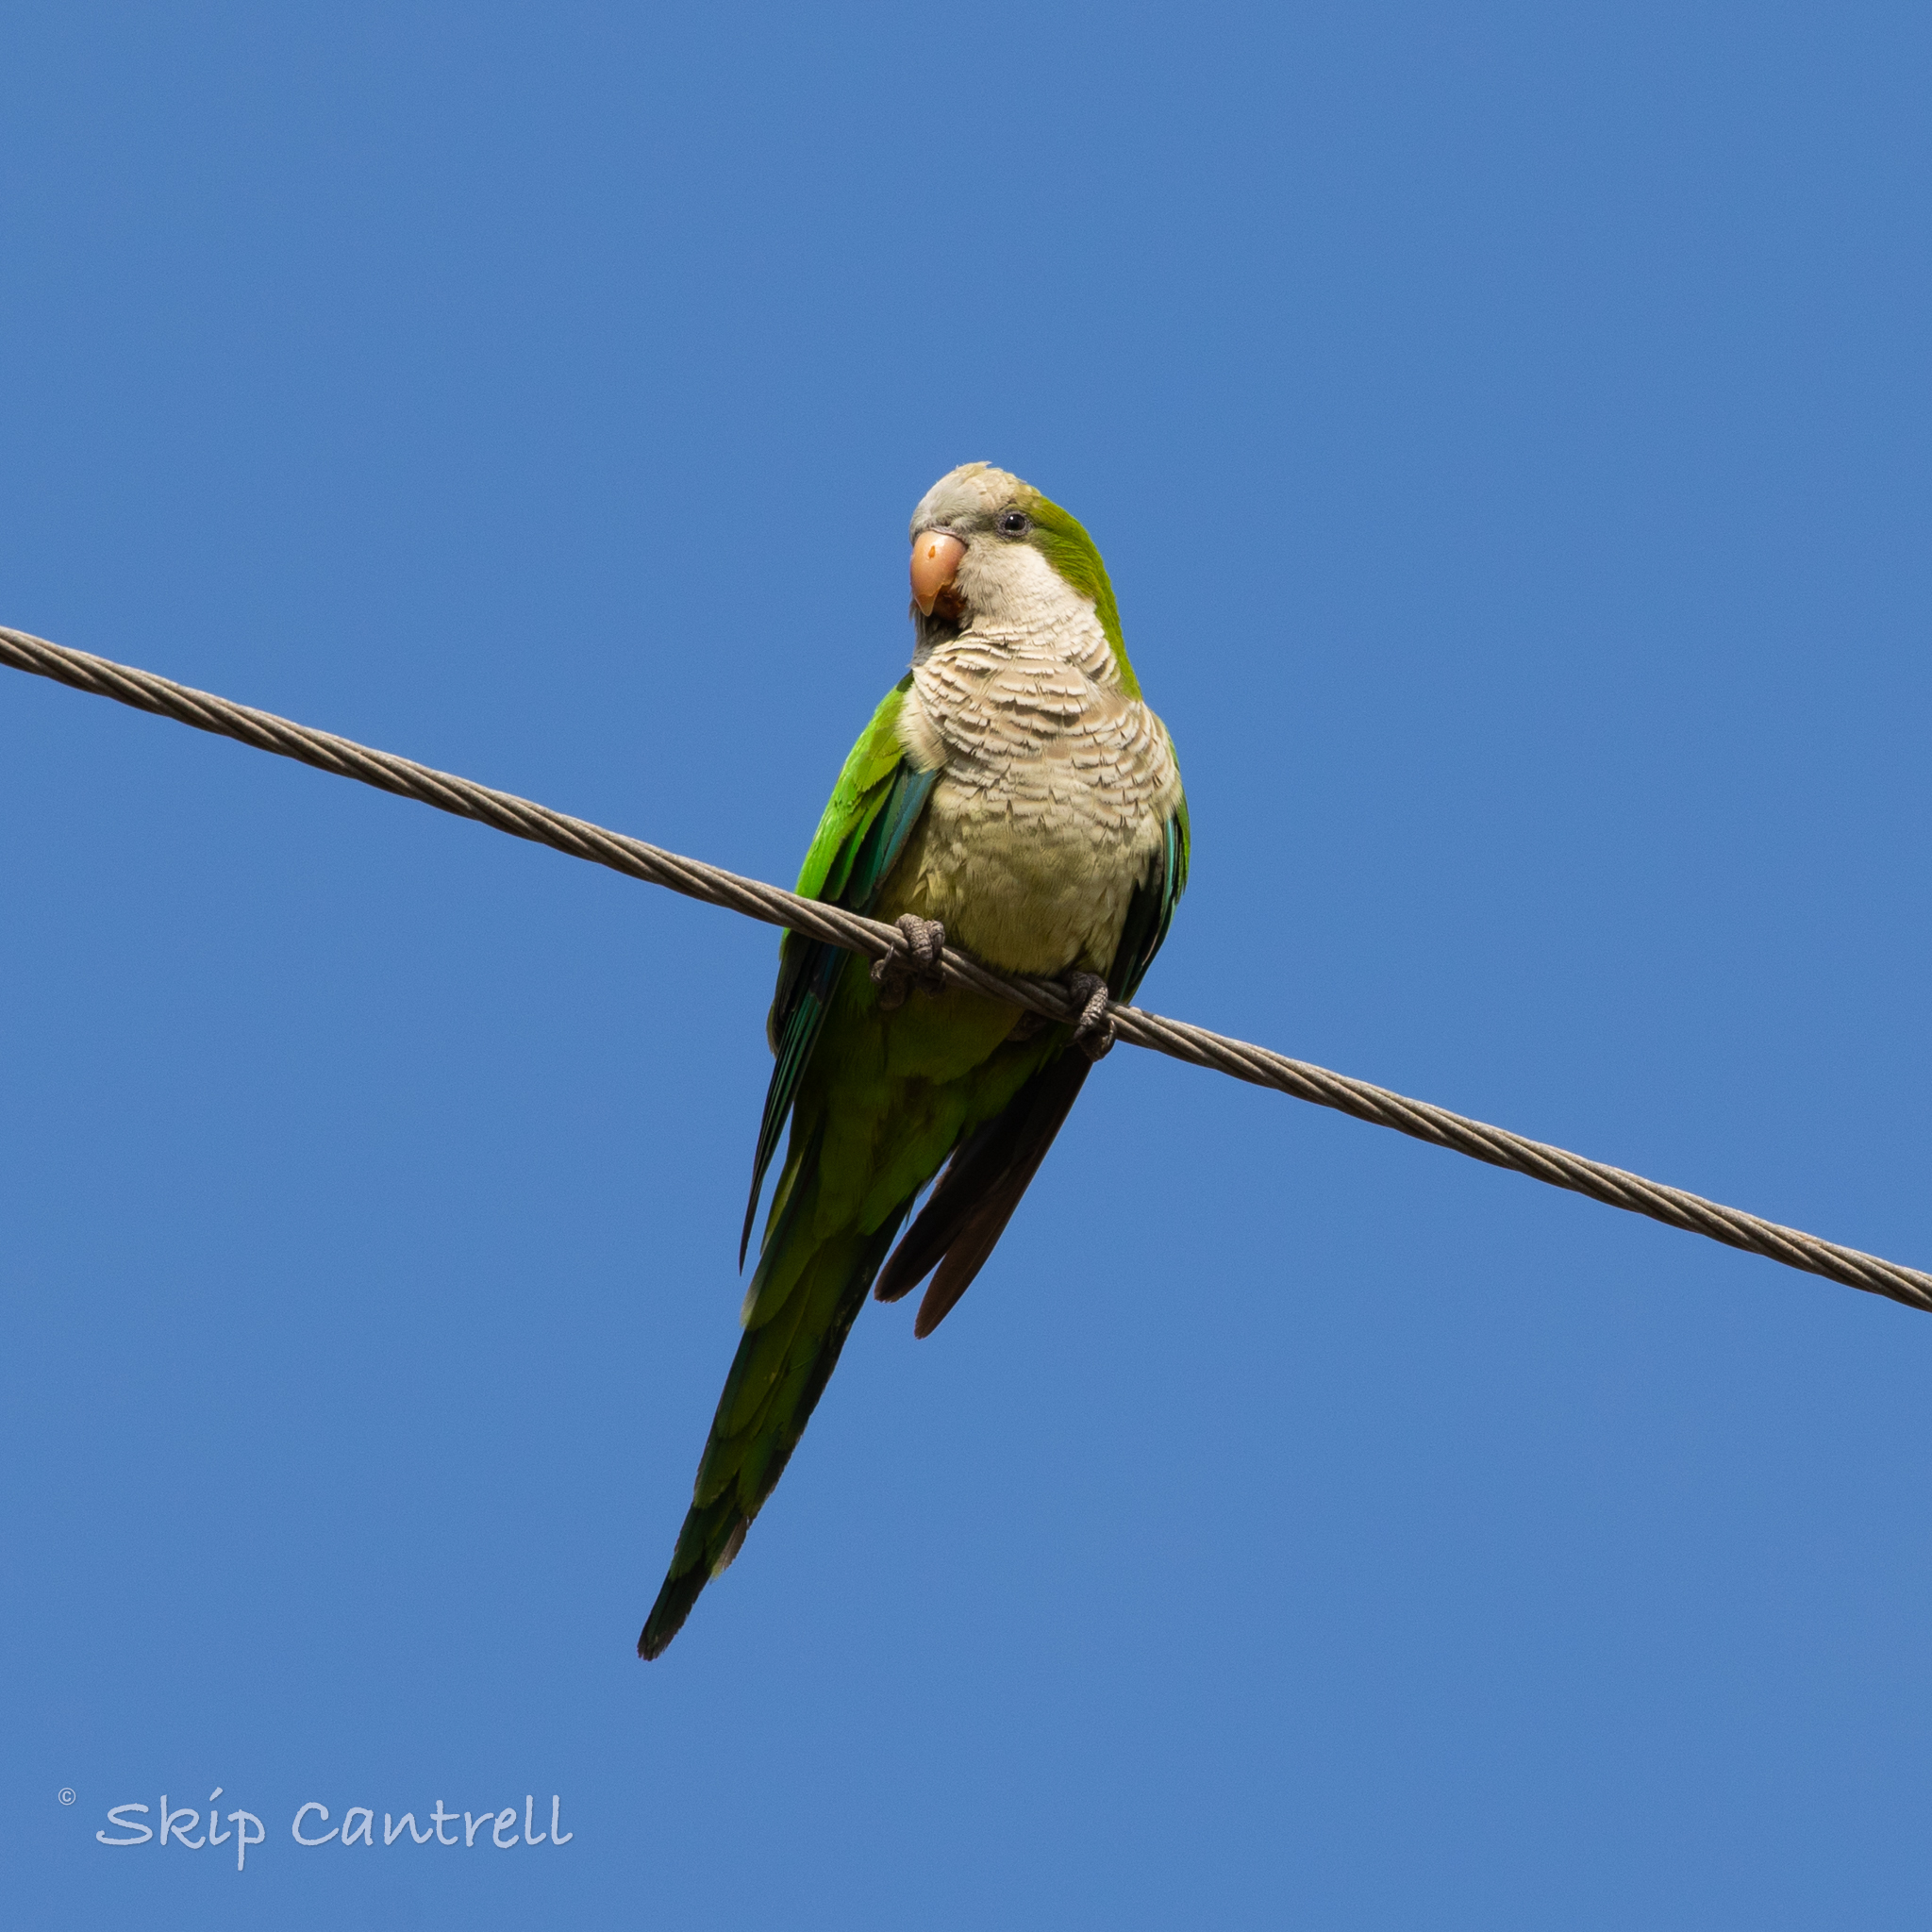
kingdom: Animalia
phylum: Chordata
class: Aves
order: Psittaciformes
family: Psittacidae
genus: Myiopsitta
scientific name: Myiopsitta monachus
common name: Monk parakeet
